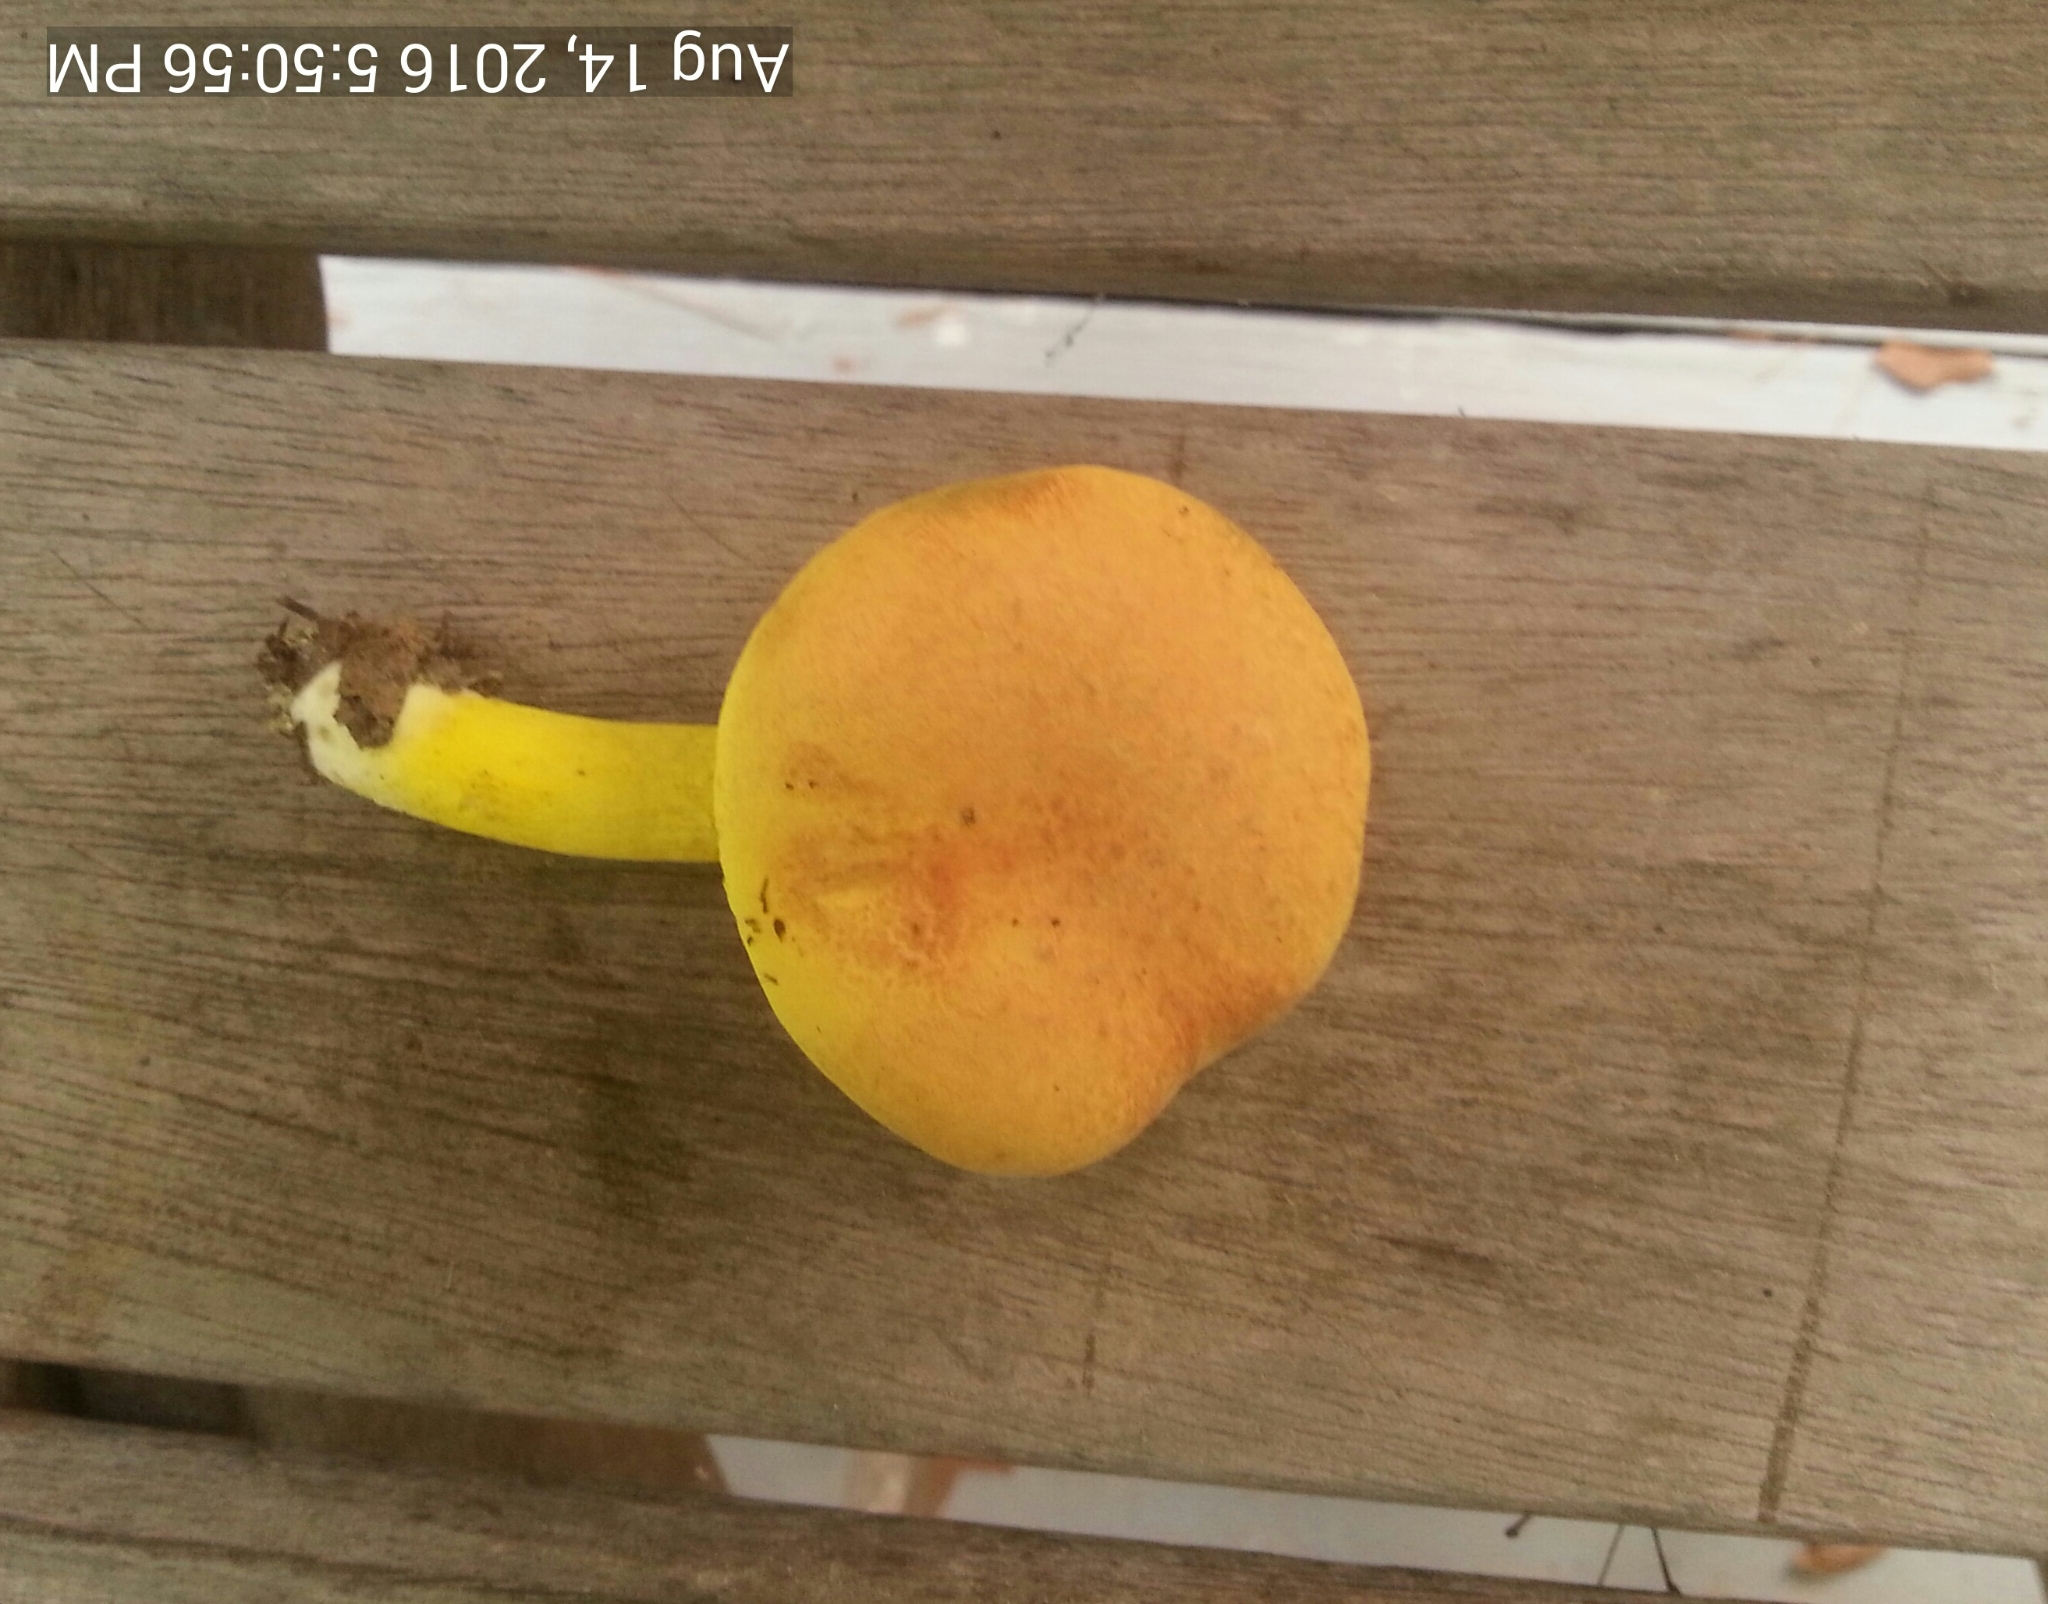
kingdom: Fungi
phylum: Basidiomycota
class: Agaricomycetes
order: Boletales
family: Boletaceae
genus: Pulveroboletus
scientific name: Pulveroboletus ravenelii
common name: Powdery sulfur bolete
